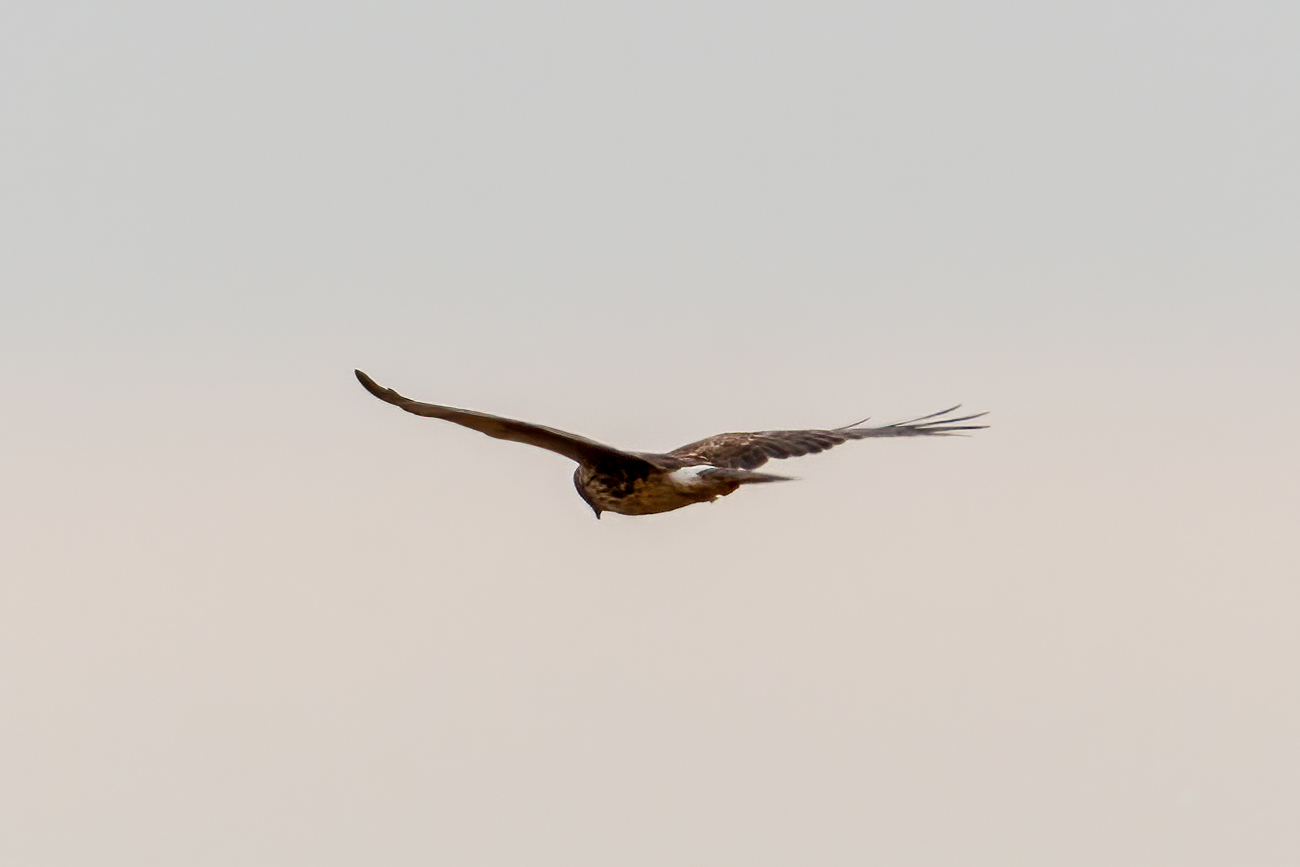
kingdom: Animalia
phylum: Chordata
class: Aves
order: Accipitriformes
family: Accipitridae
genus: Circus
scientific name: Circus cyaneus
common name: Hen harrier
